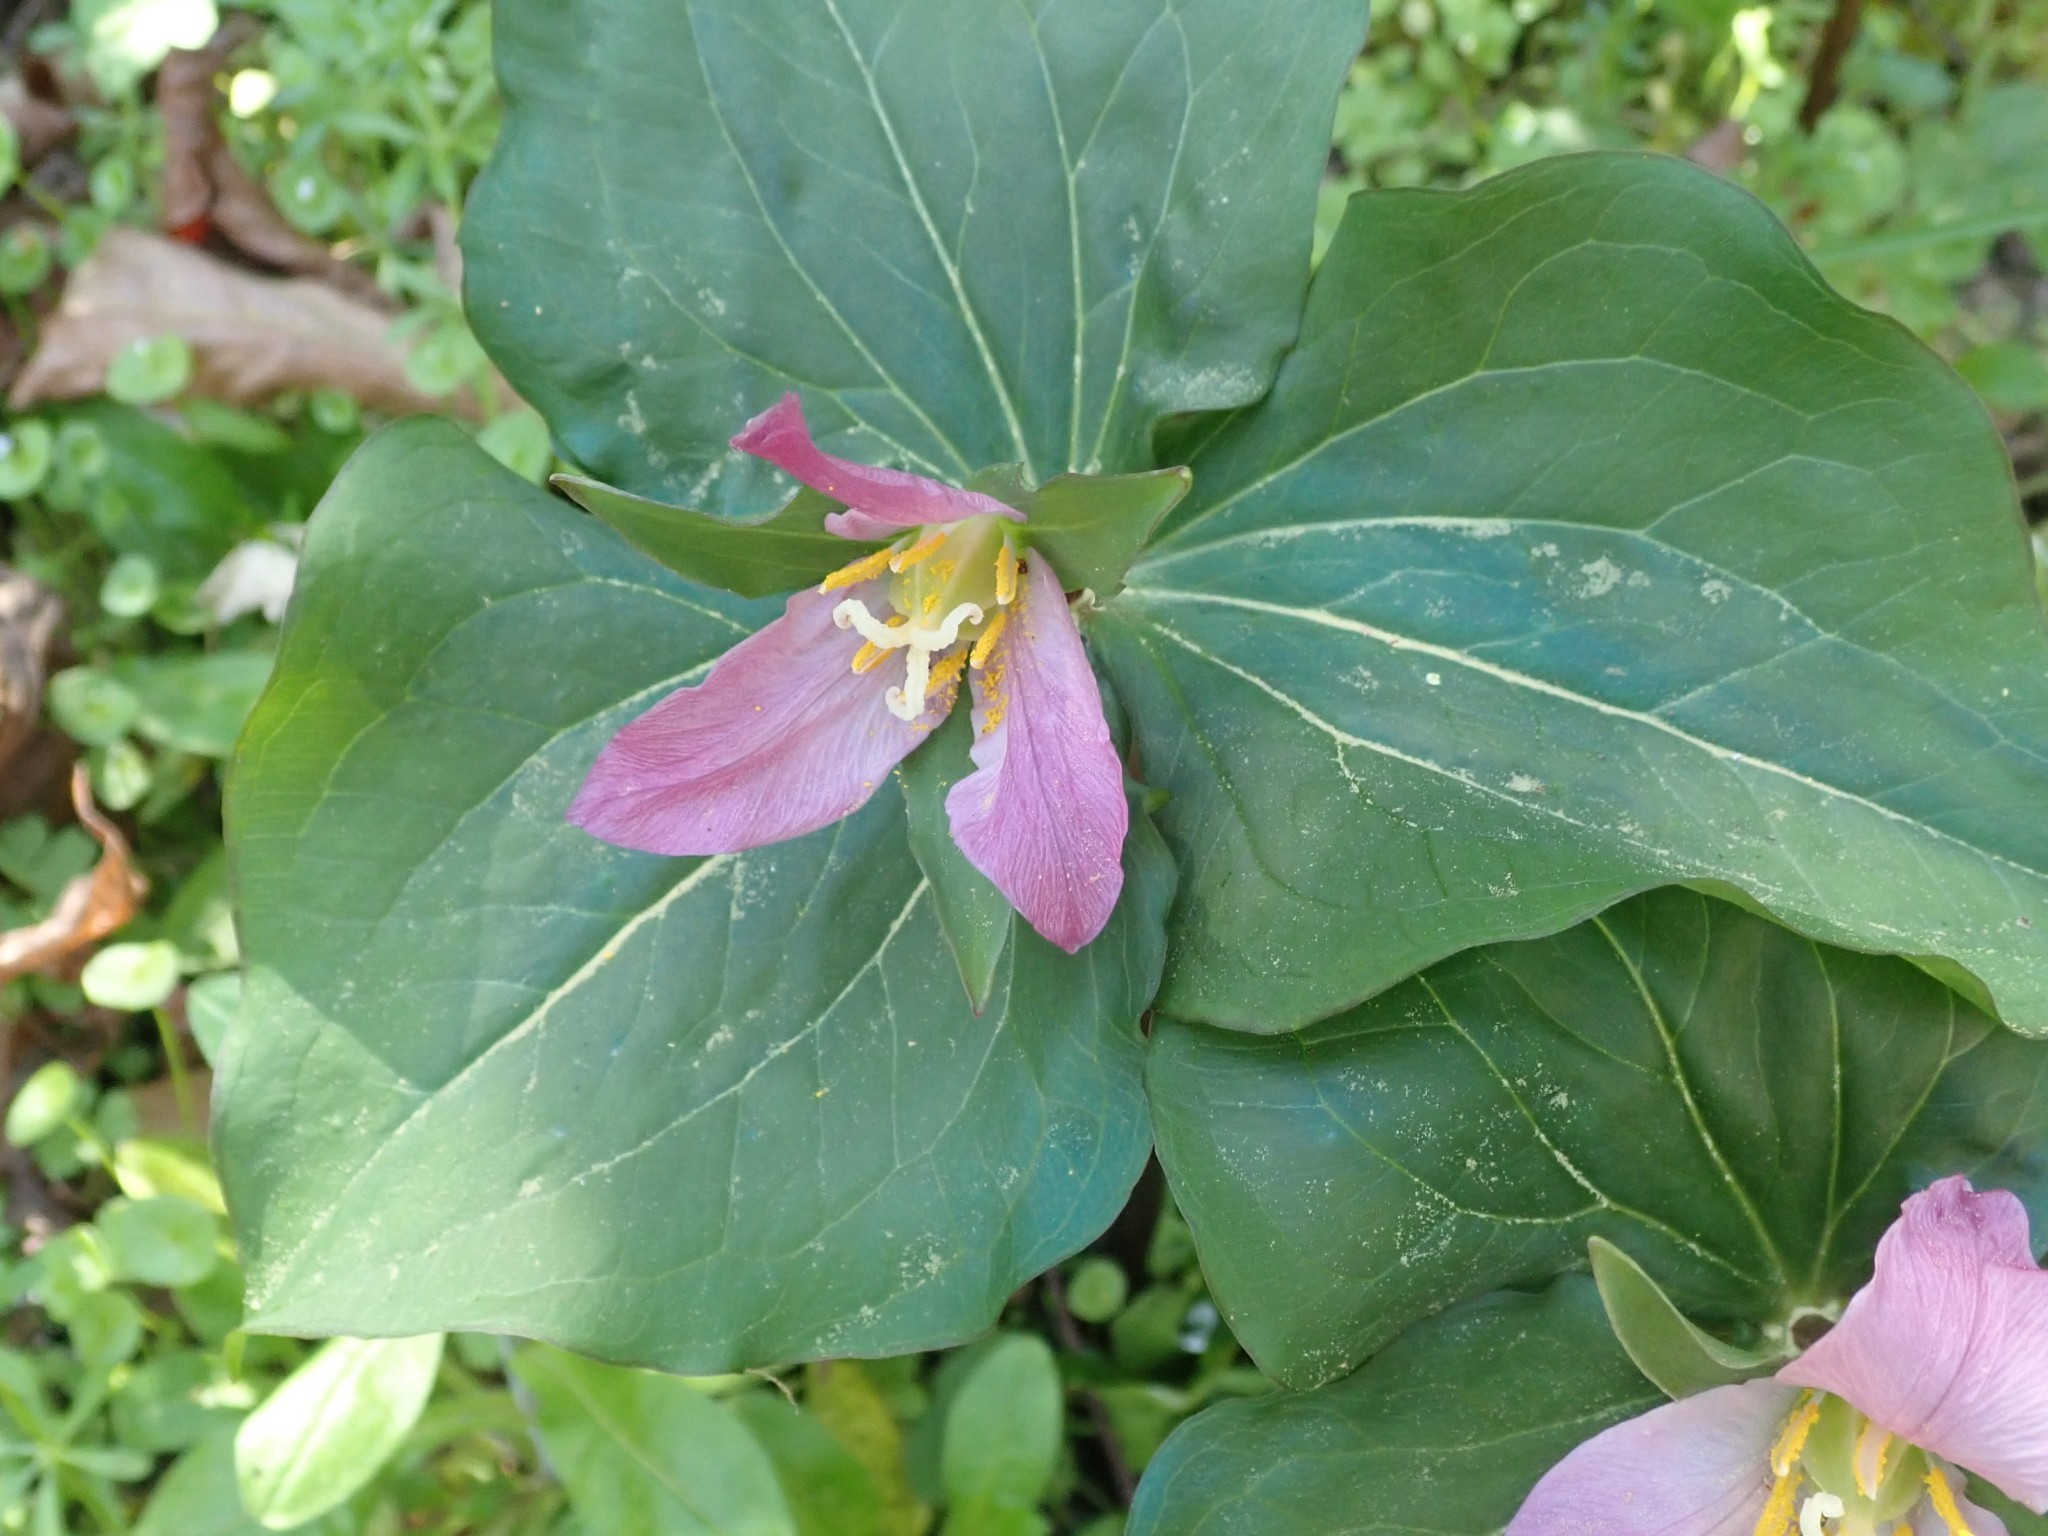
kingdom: Plantae
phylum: Tracheophyta
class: Liliopsida
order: Liliales
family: Melanthiaceae
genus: Trillium
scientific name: Trillium ovatum
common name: Pacific trillium
